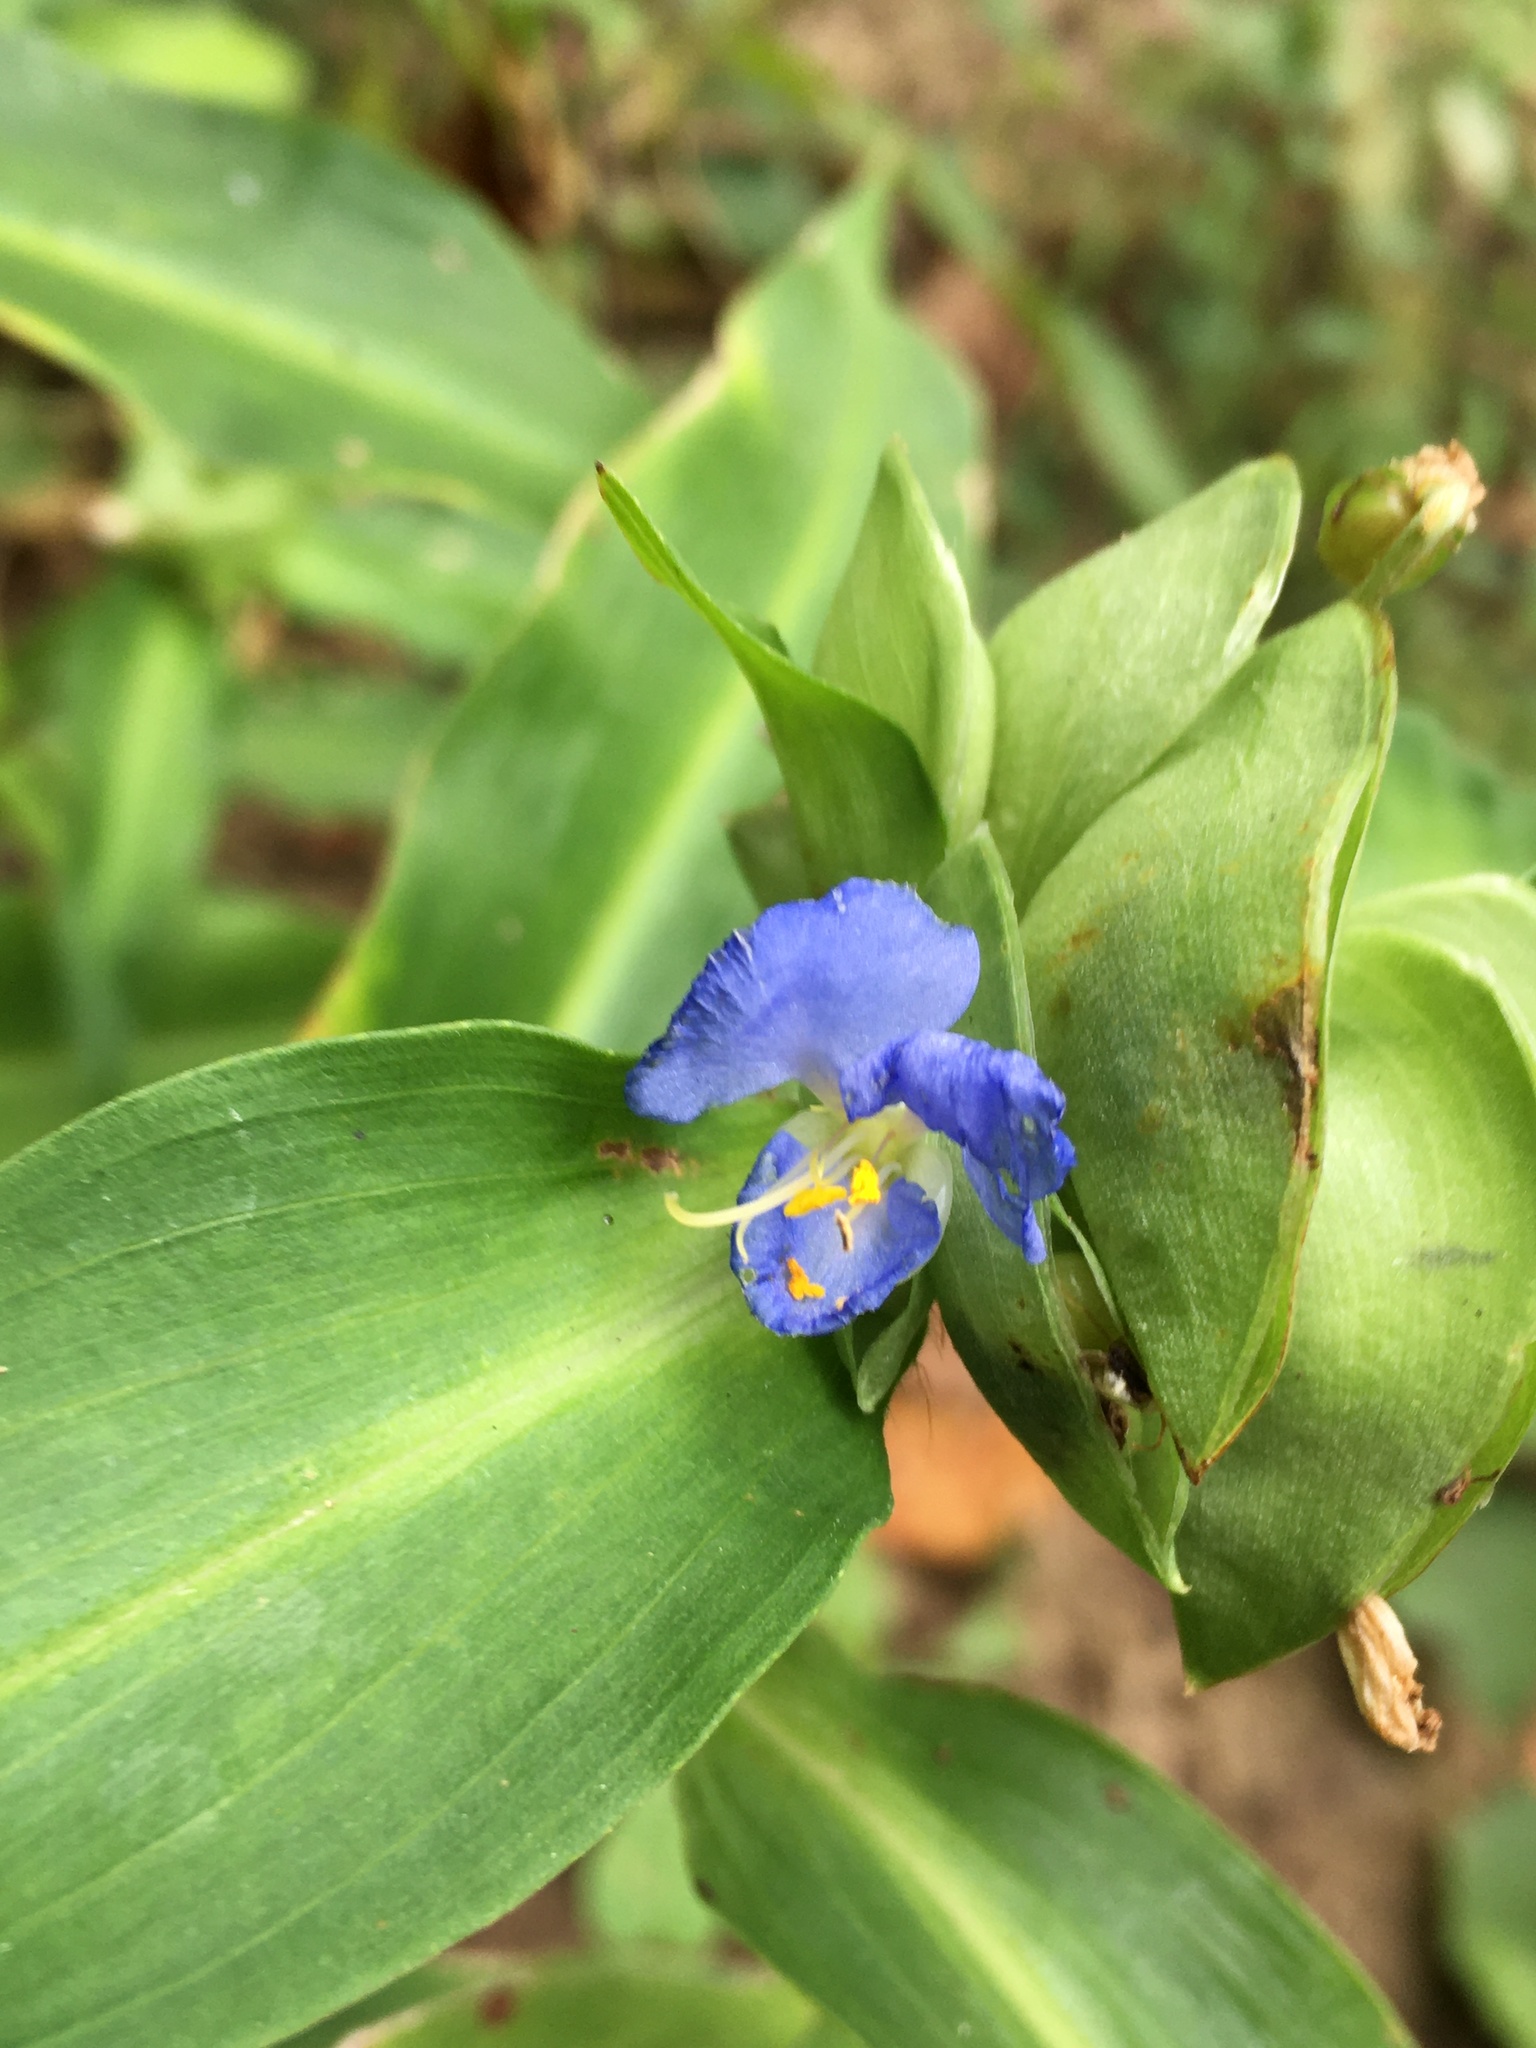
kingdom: Plantae
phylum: Tracheophyta
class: Liliopsida
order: Commelinales
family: Commelinaceae
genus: Commelina
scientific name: Commelina virginica
